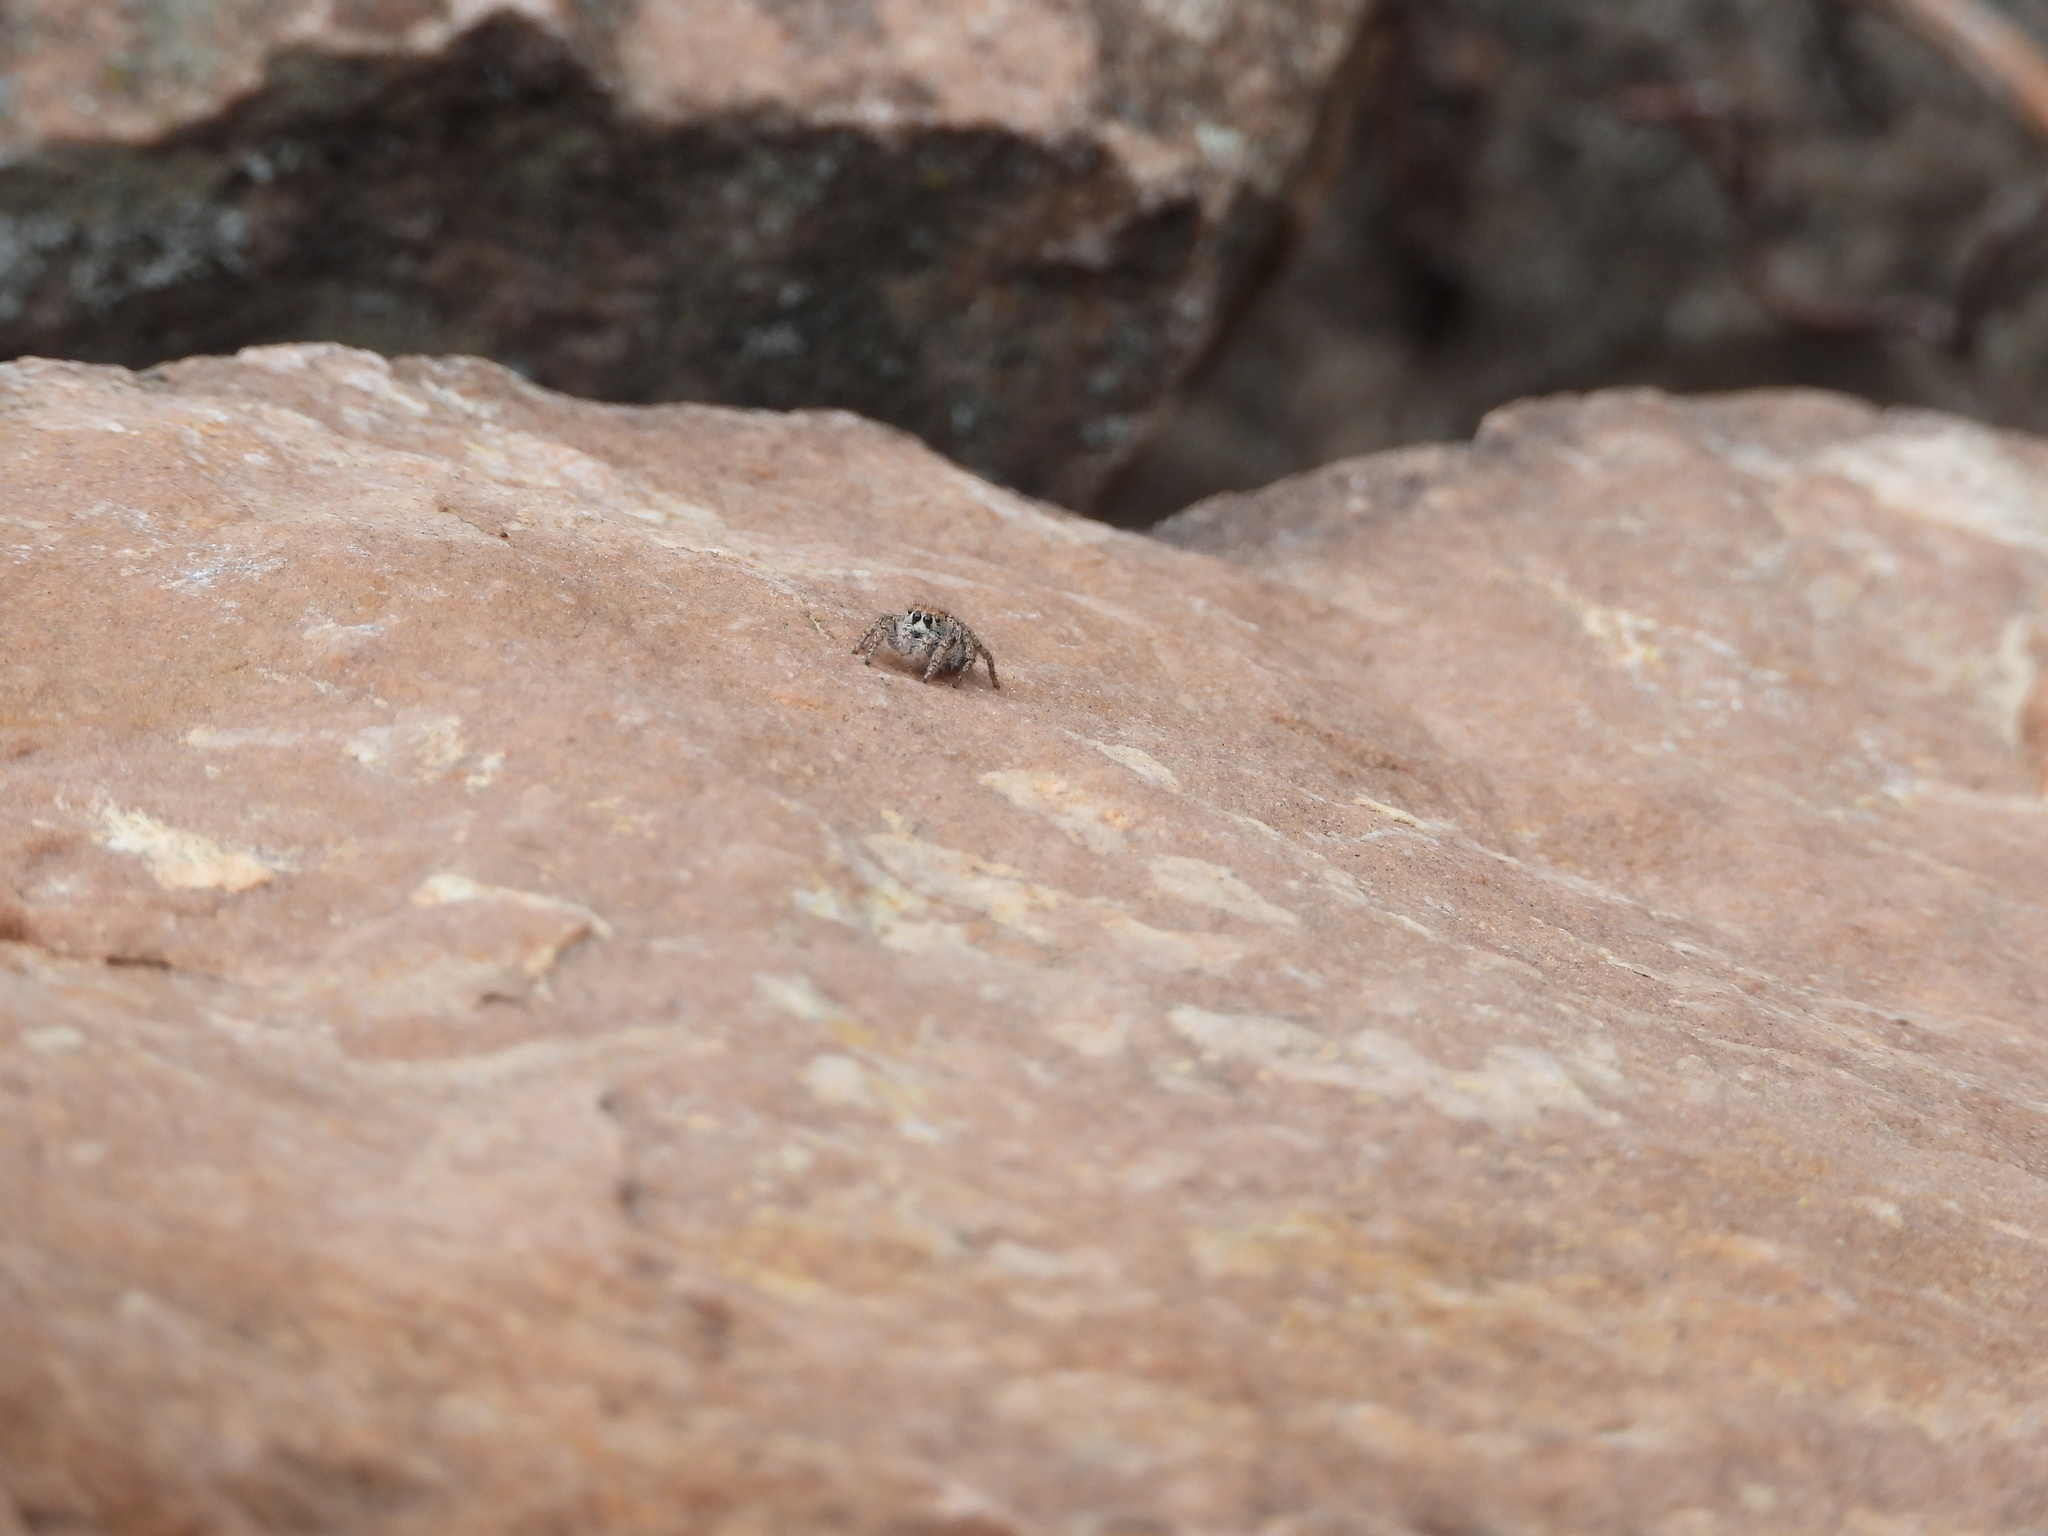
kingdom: Animalia
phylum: Arthropoda
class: Arachnida
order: Araneae
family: Salticidae
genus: Habronattus
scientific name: Habronattus venatoris
